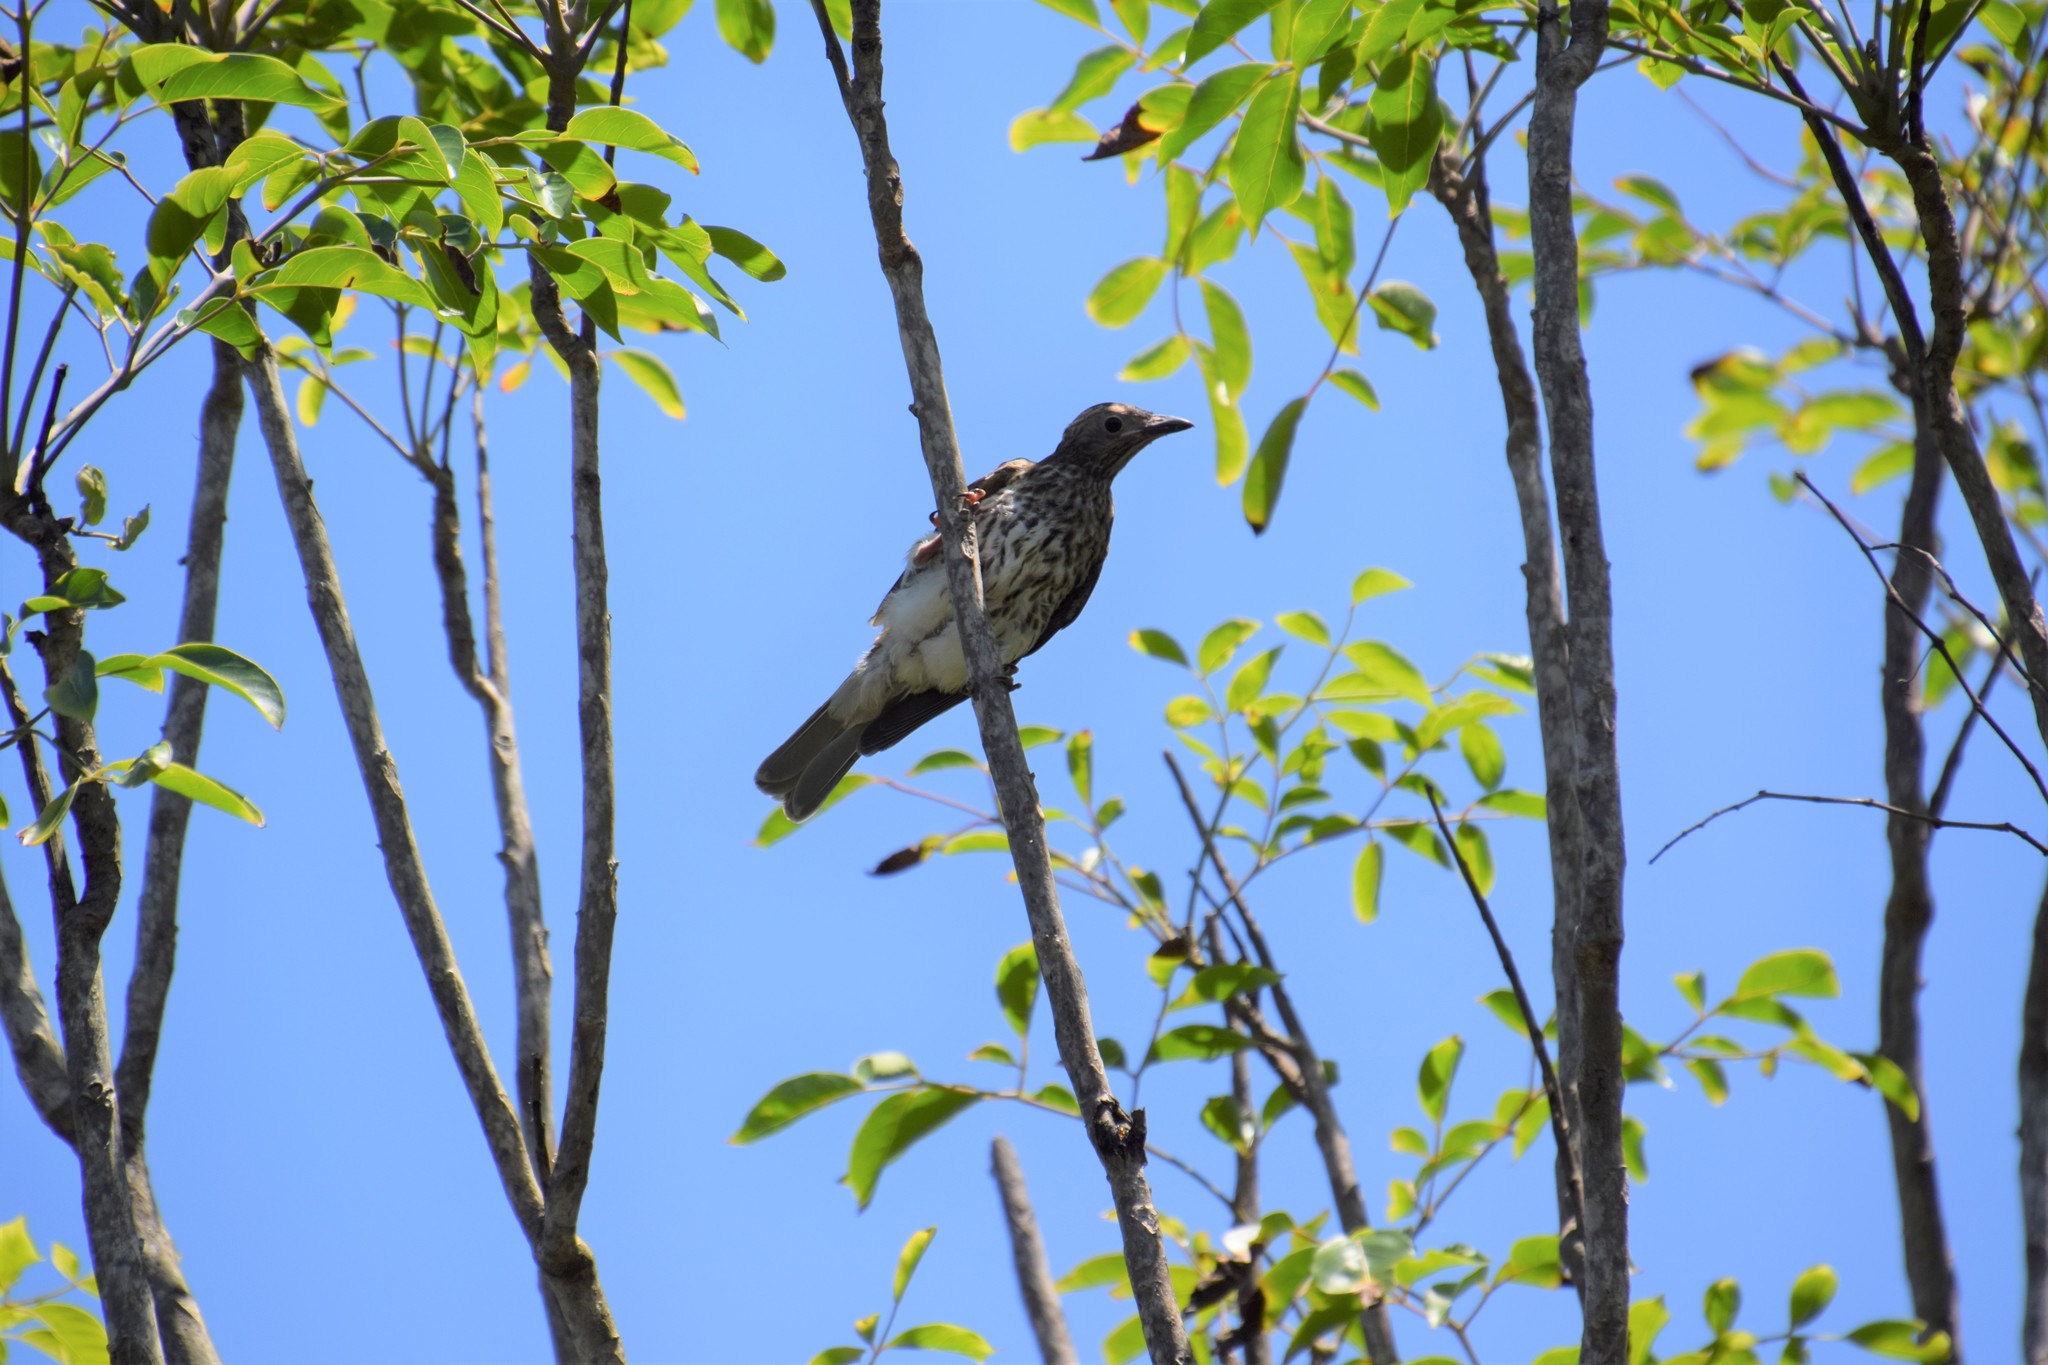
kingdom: Animalia
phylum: Chordata
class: Aves
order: Passeriformes
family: Oriolidae
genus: Sphecotheres
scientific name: Sphecotheres vieilloti
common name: Australasian figbird
